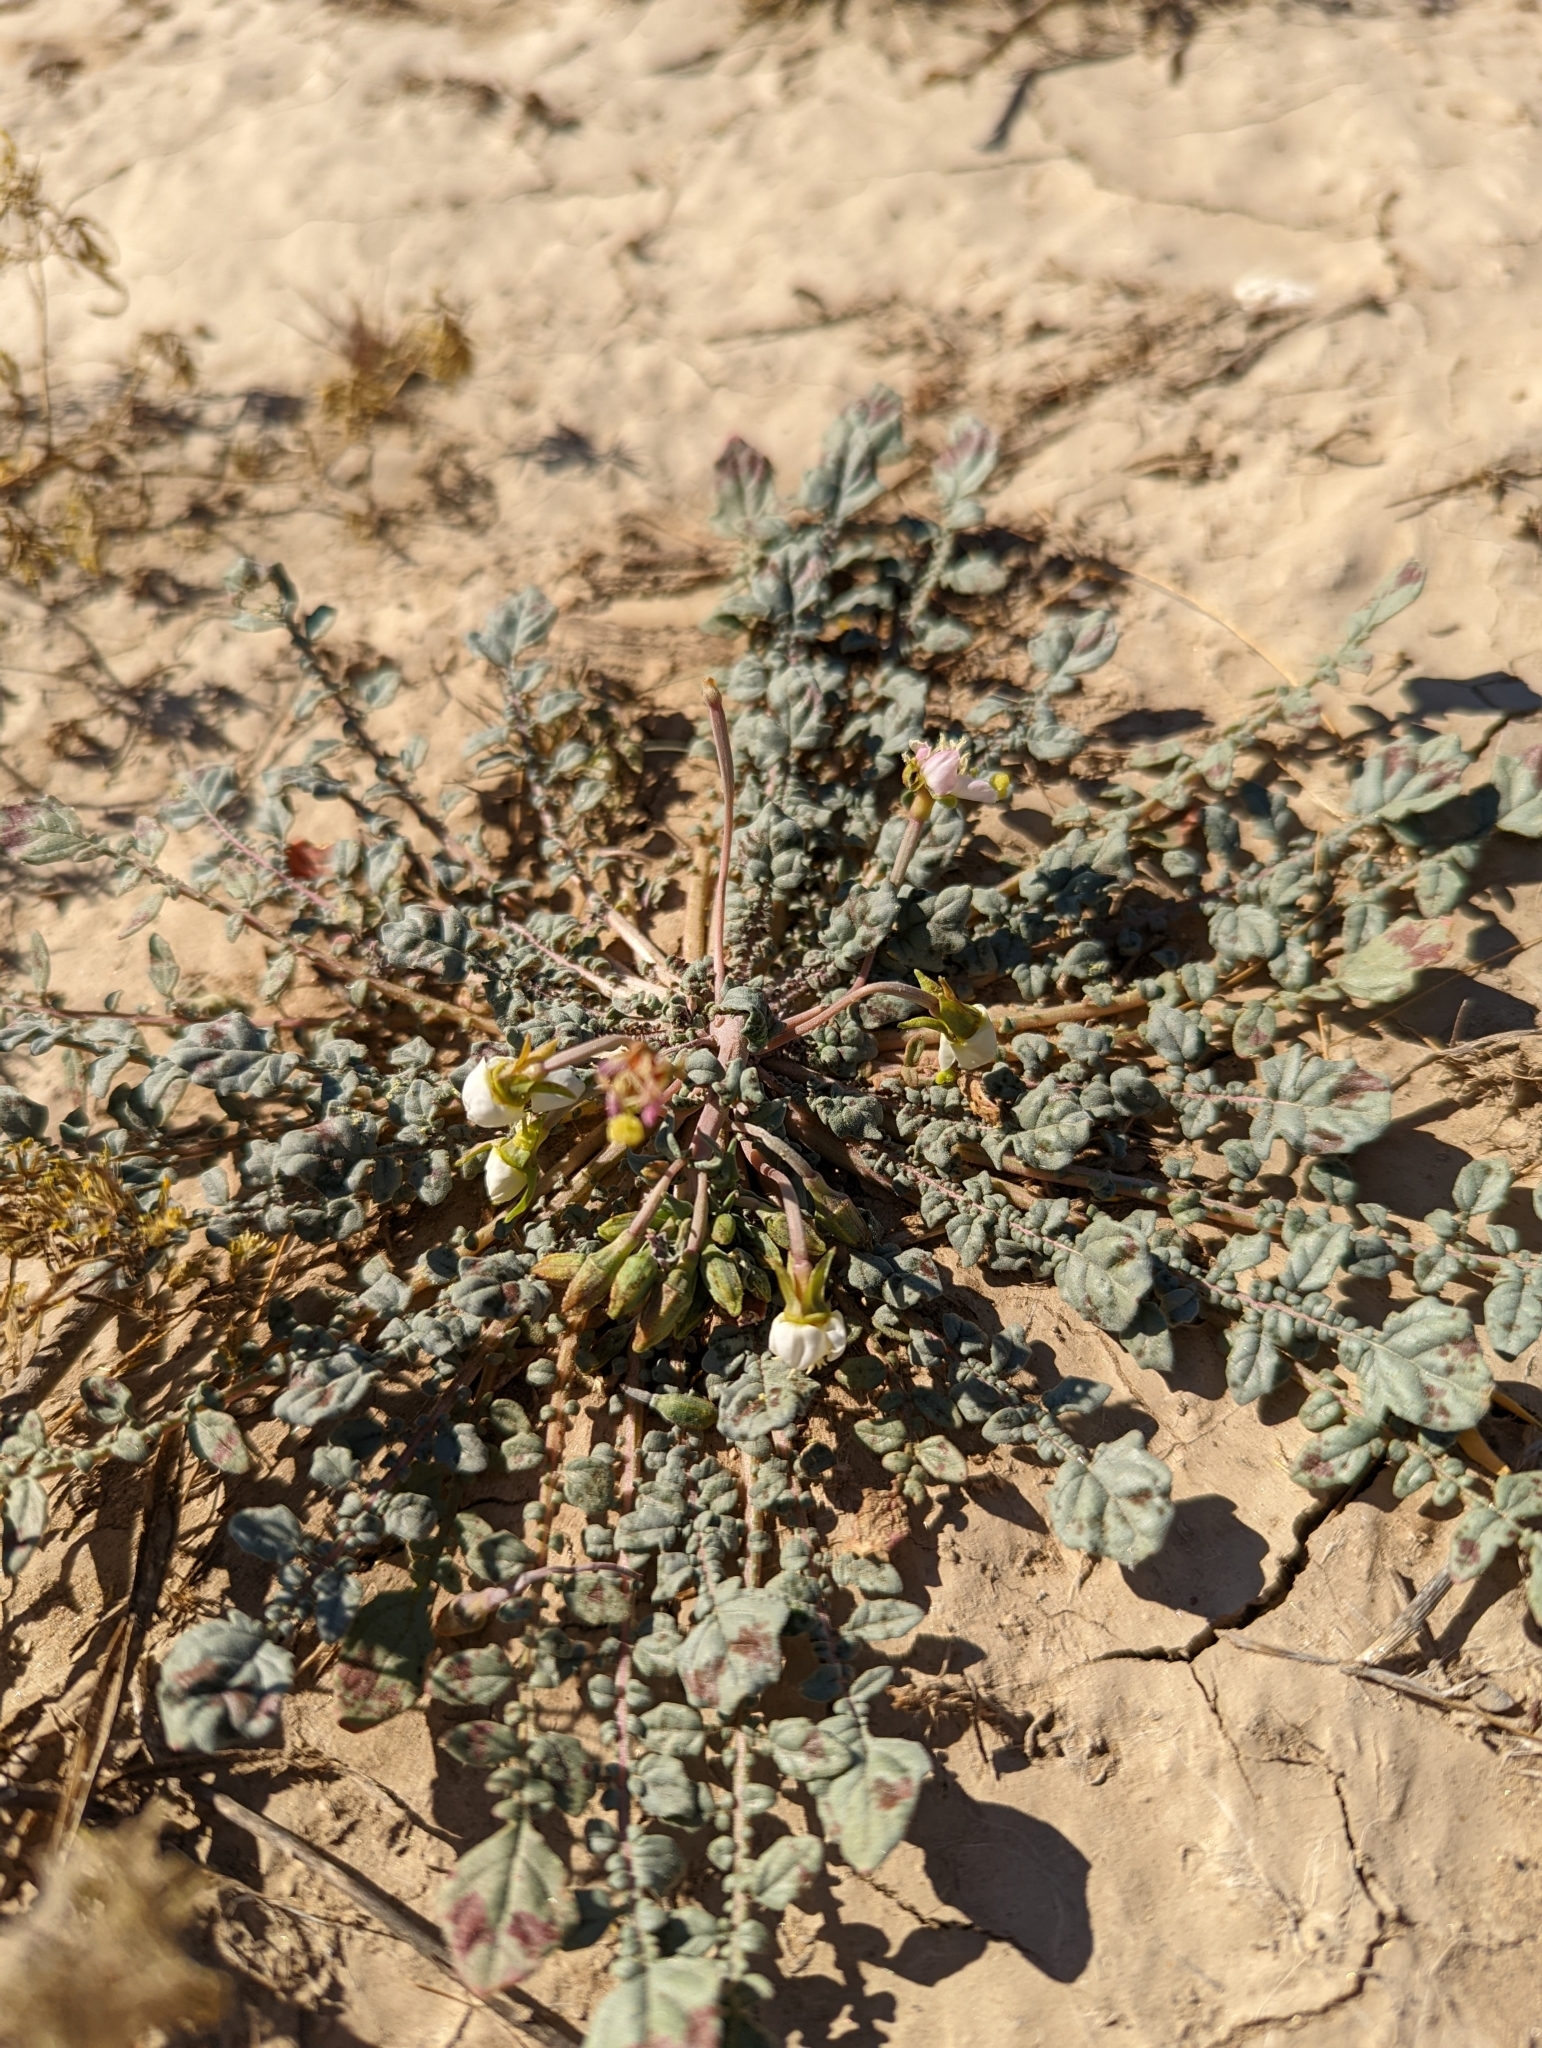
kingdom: Plantae
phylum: Tracheophyta
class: Magnoliopsida
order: Myrtales
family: Onagraceae
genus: Chylismia
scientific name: Chylismia claviformis
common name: Browneyes
